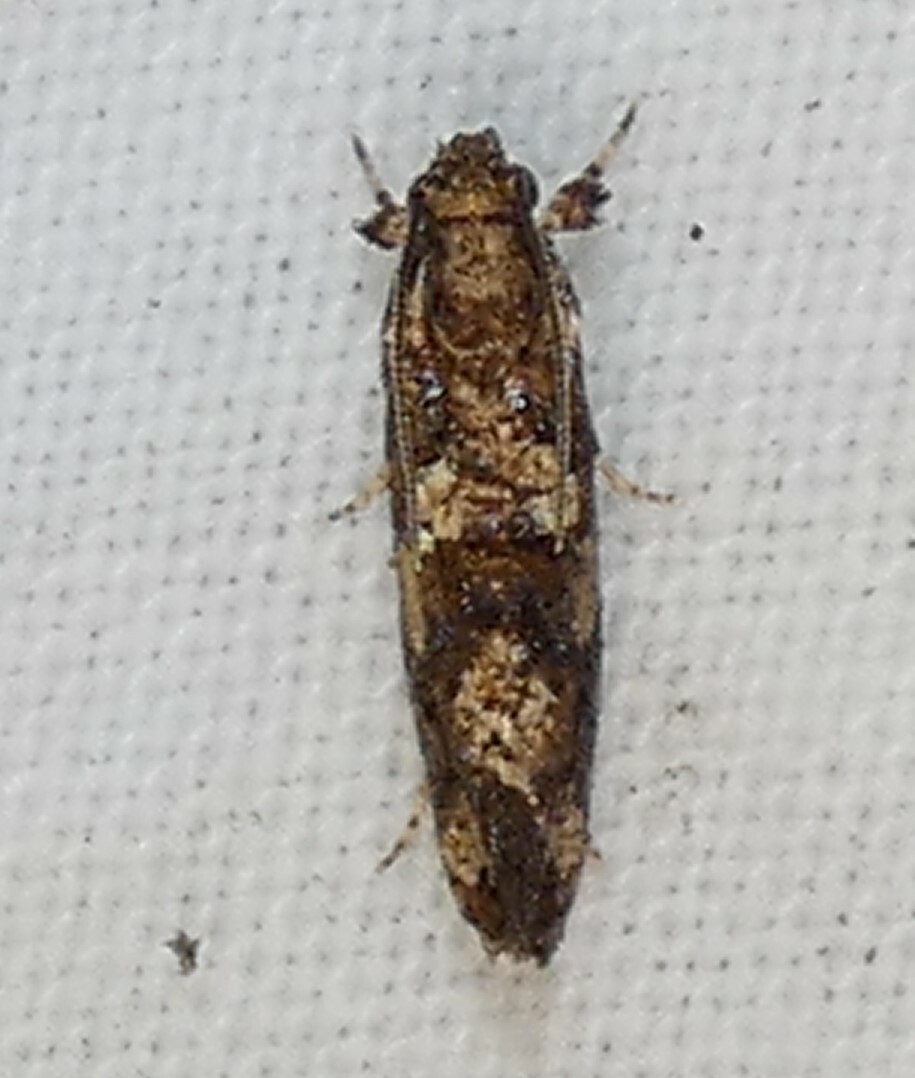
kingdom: Animalia
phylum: Arthropoda
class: Insecta
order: Lepidoptera
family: Tineidae
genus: Acrolophus
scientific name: Acrolophus cressoni
